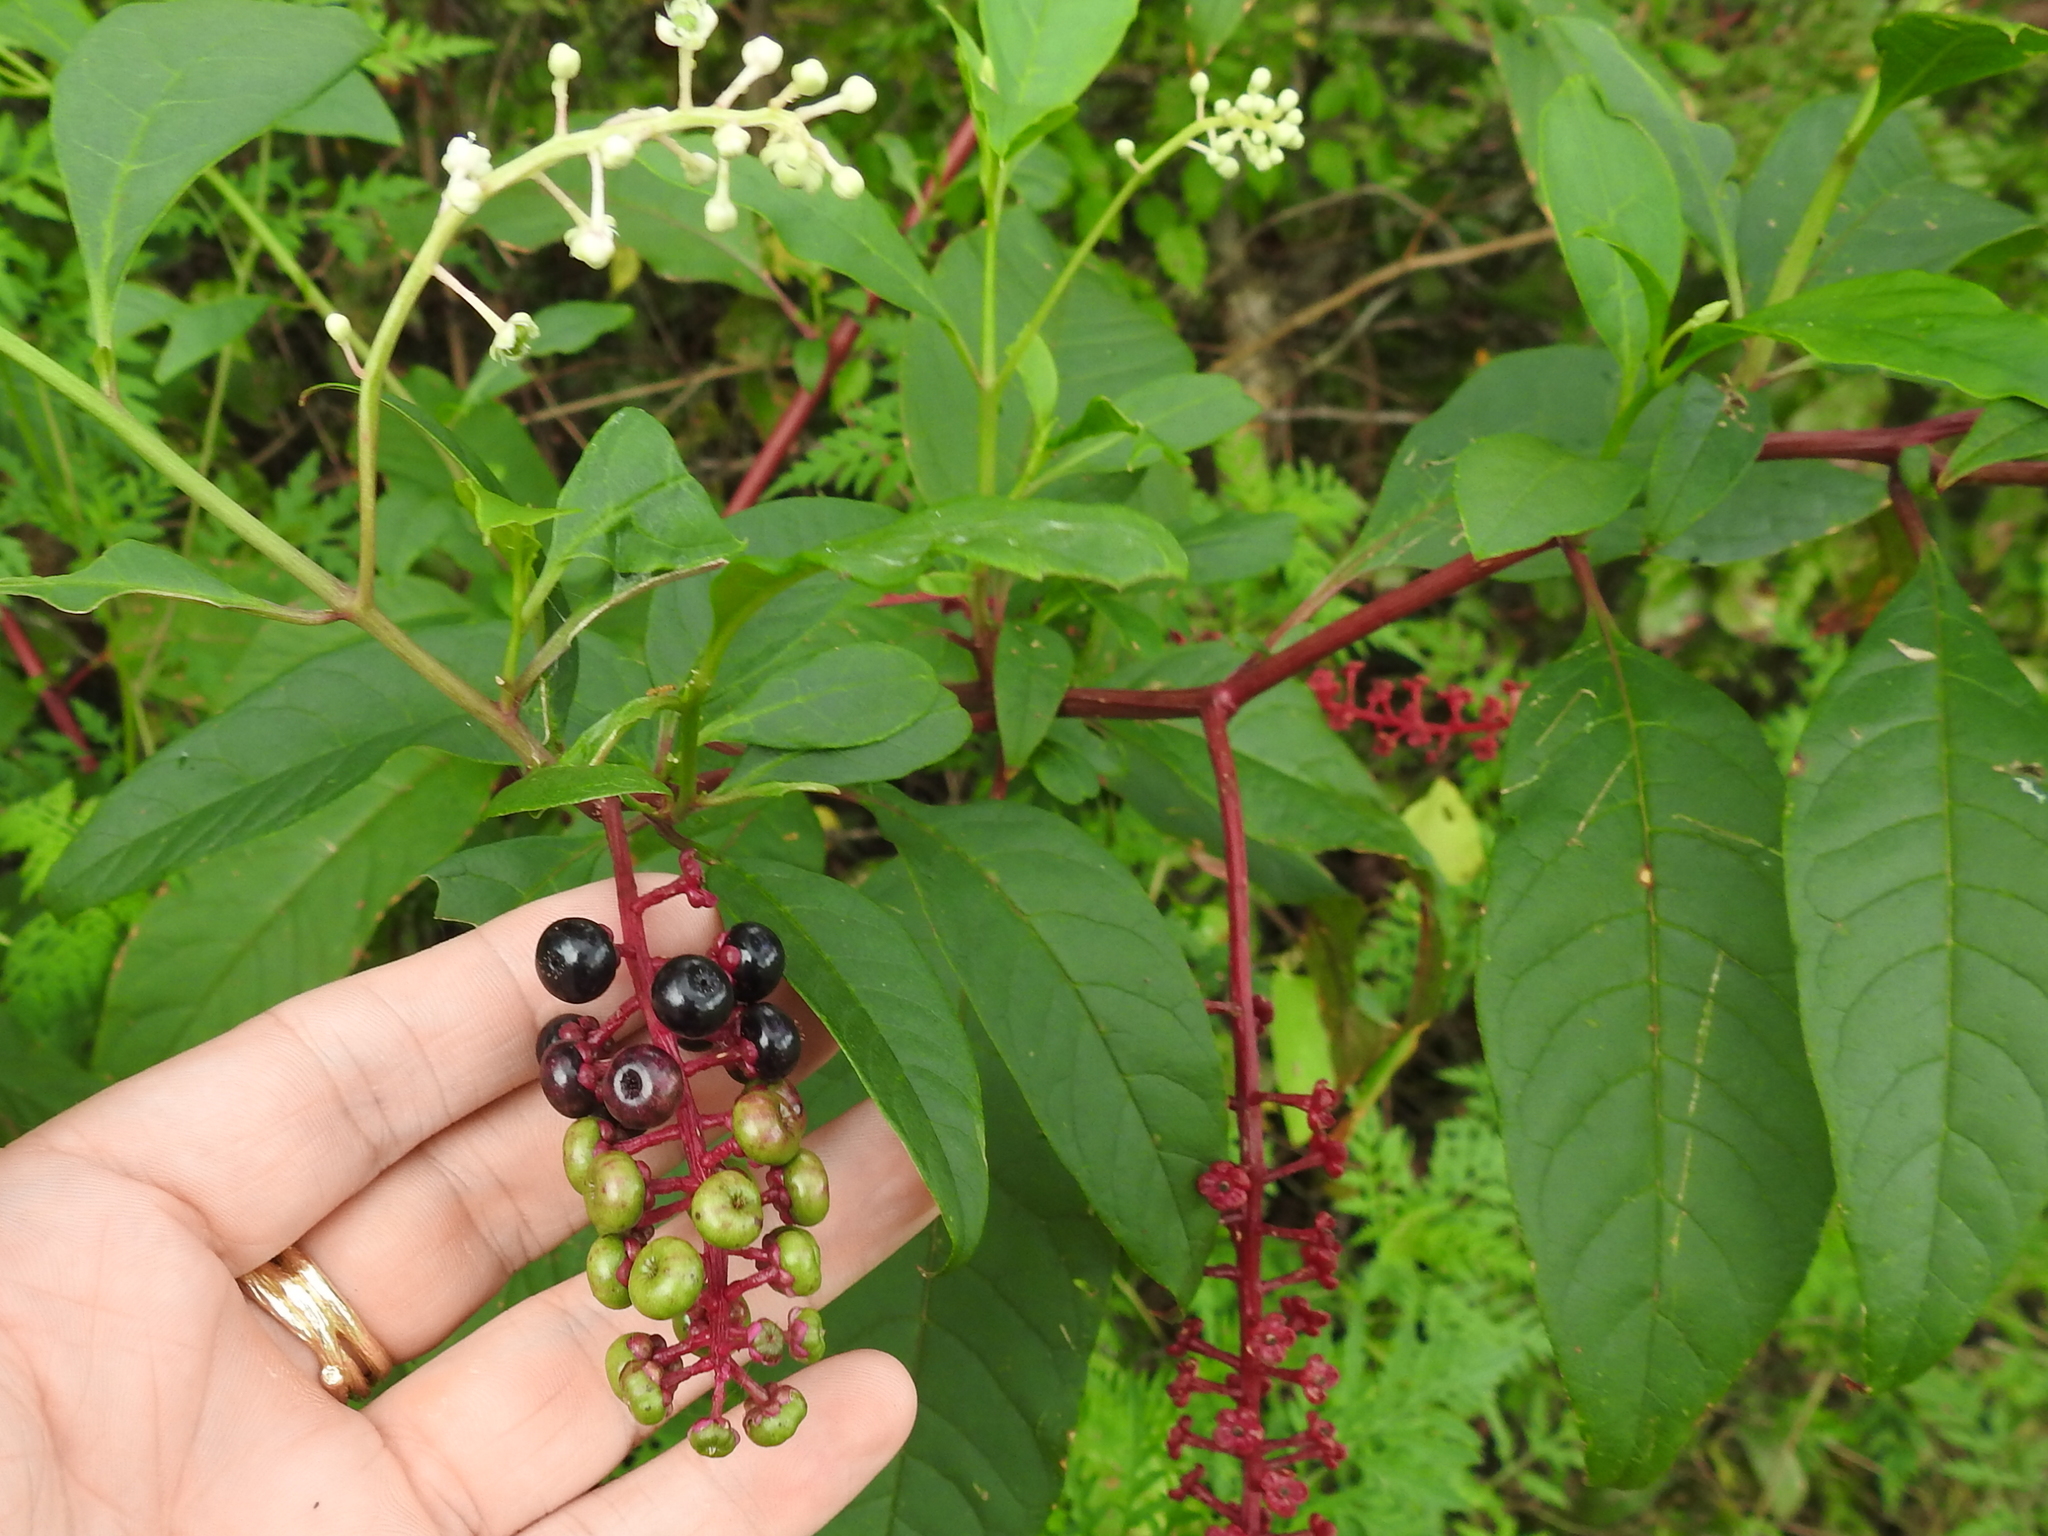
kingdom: Plantae
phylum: Tracheophyta
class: Magnoliopsida
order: Caryophyllales
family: Phytolaccaceae
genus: Phytolacca
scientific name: Phytolacca americana
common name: American pokeweed
